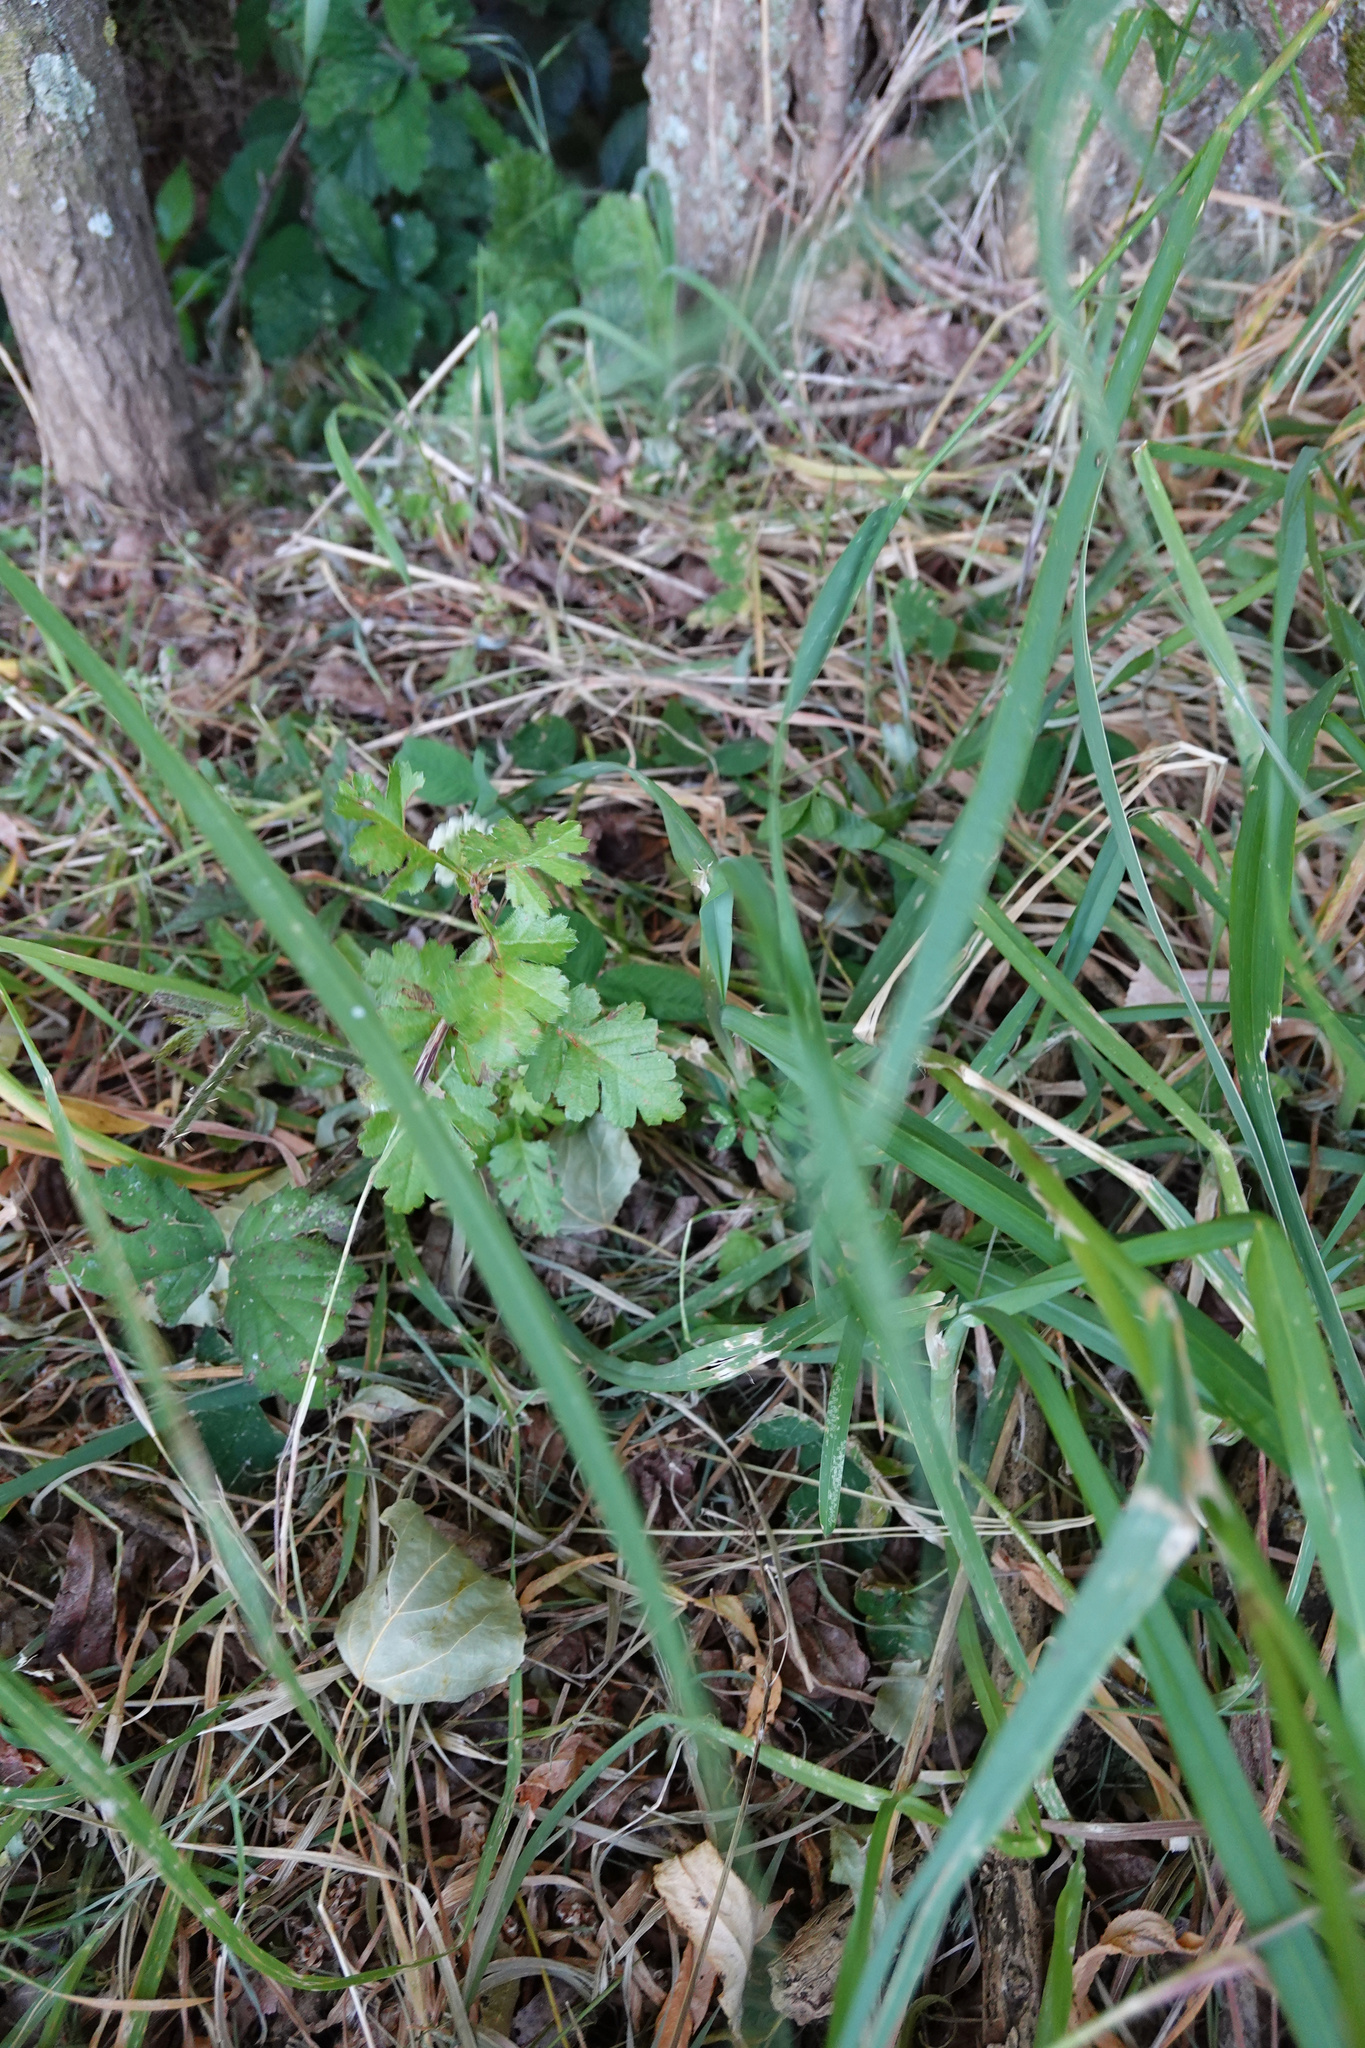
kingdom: Plantae
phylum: Tracheophyta
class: Magnoliopsida
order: Rosales
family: Rosaceae
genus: Crataegus
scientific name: Crataegus monogyna
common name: Hawthorn
